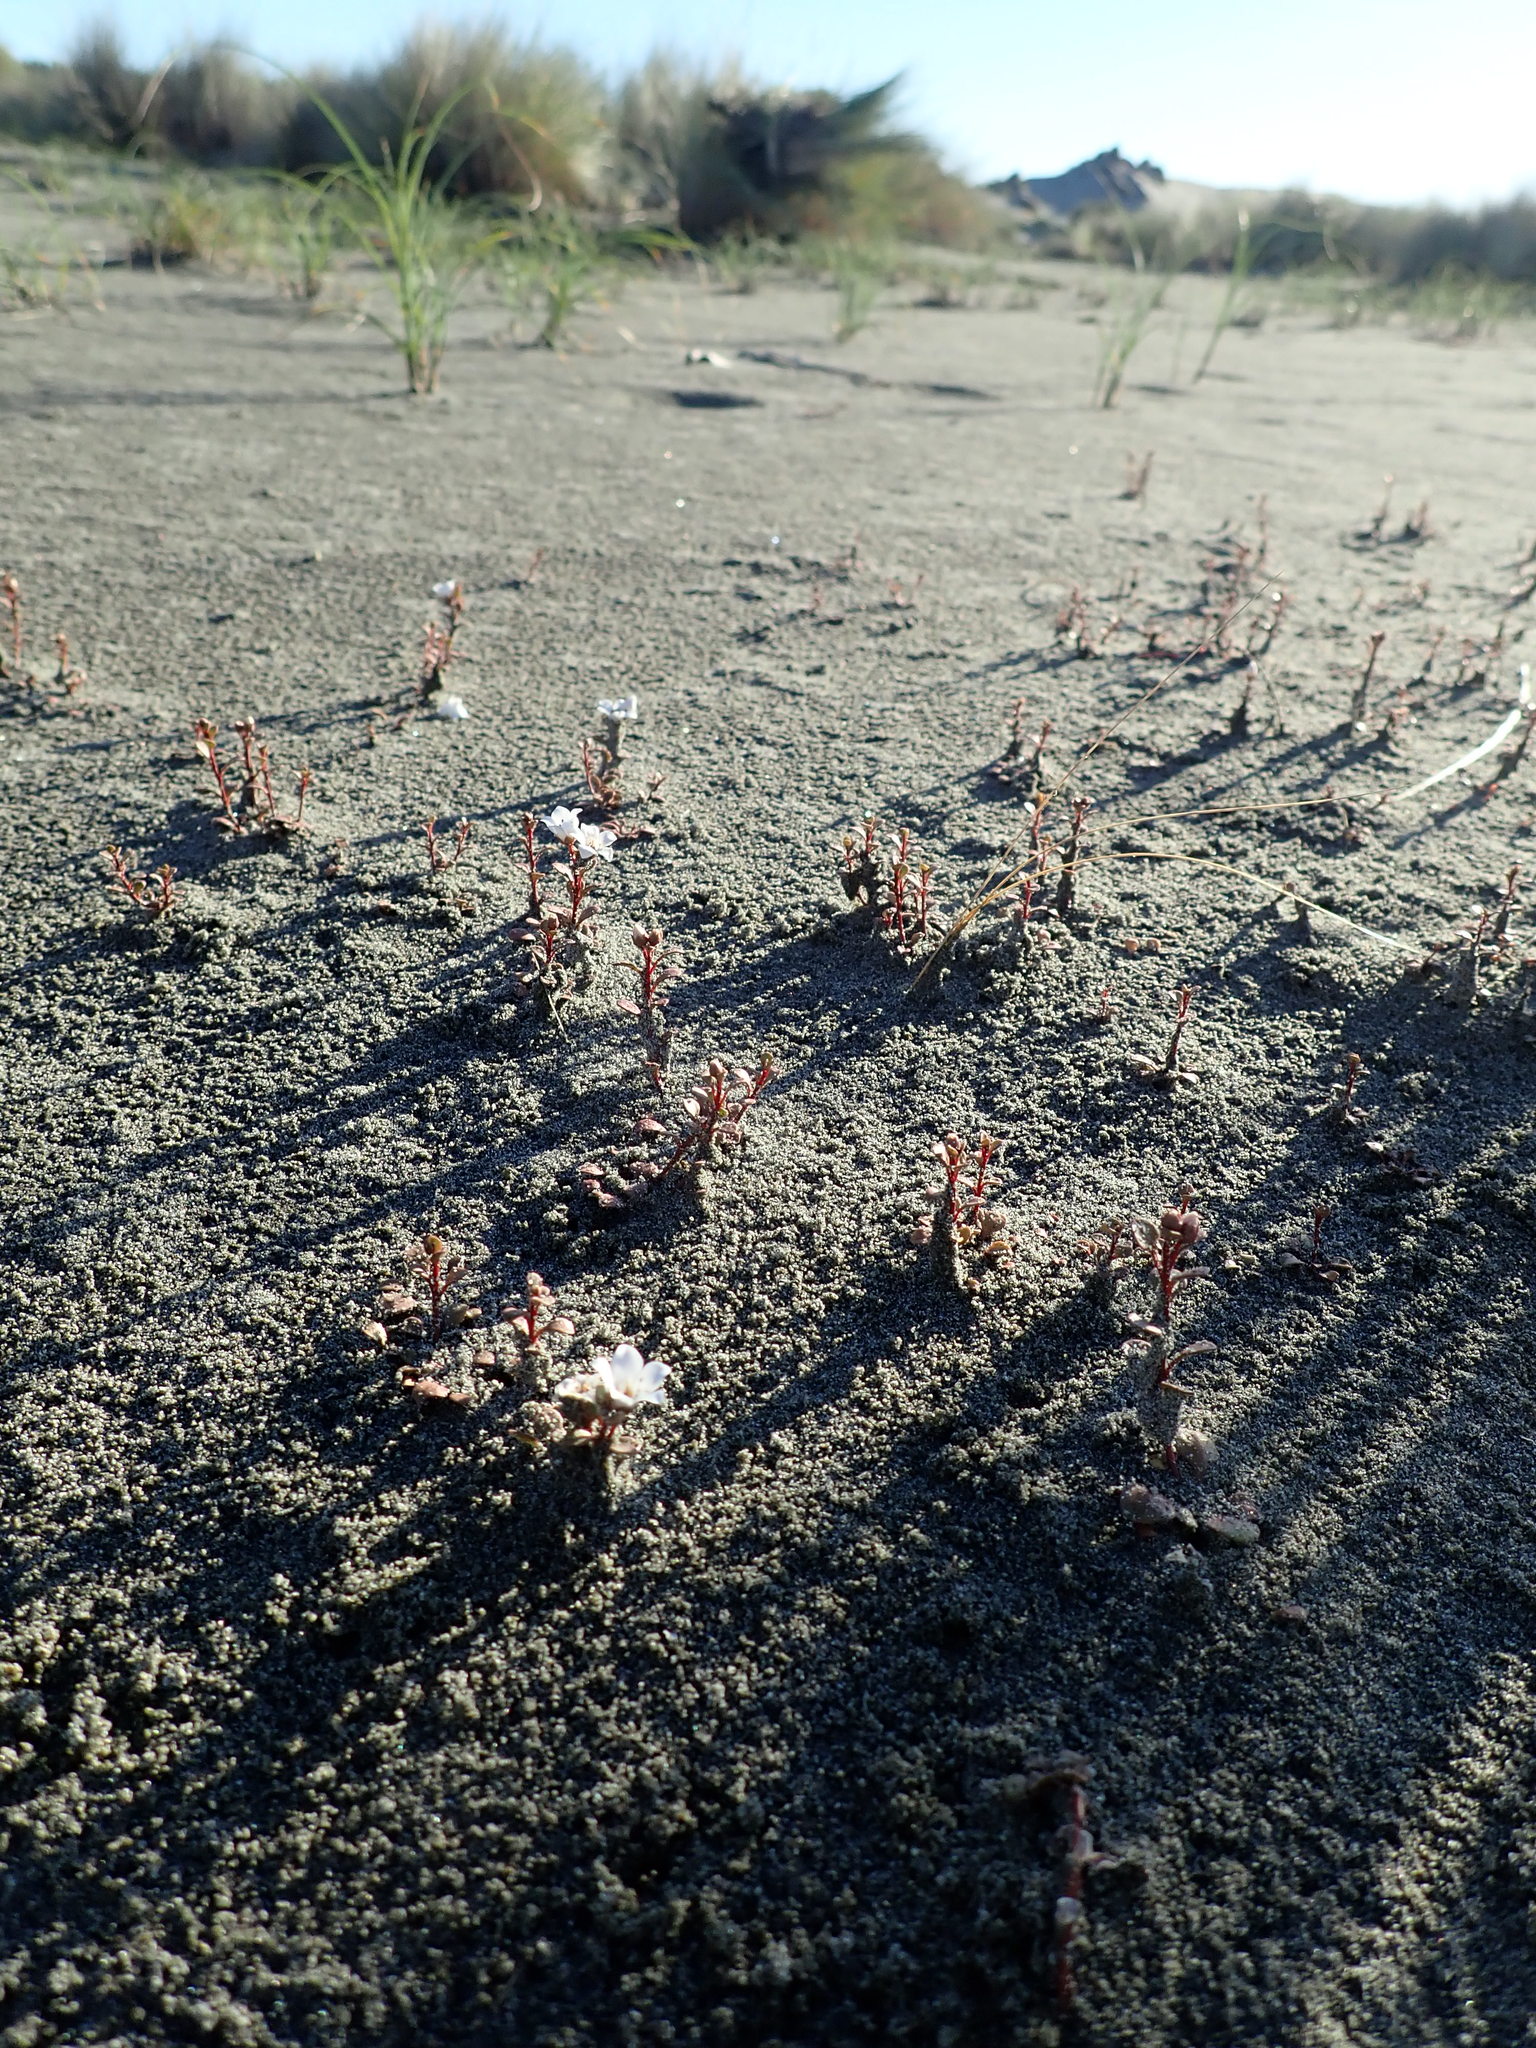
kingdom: Plantae
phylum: Tracheophyta
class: Magnoliopsida
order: Ericales
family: Primulaceae
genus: Samolus
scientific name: Samolus repens
